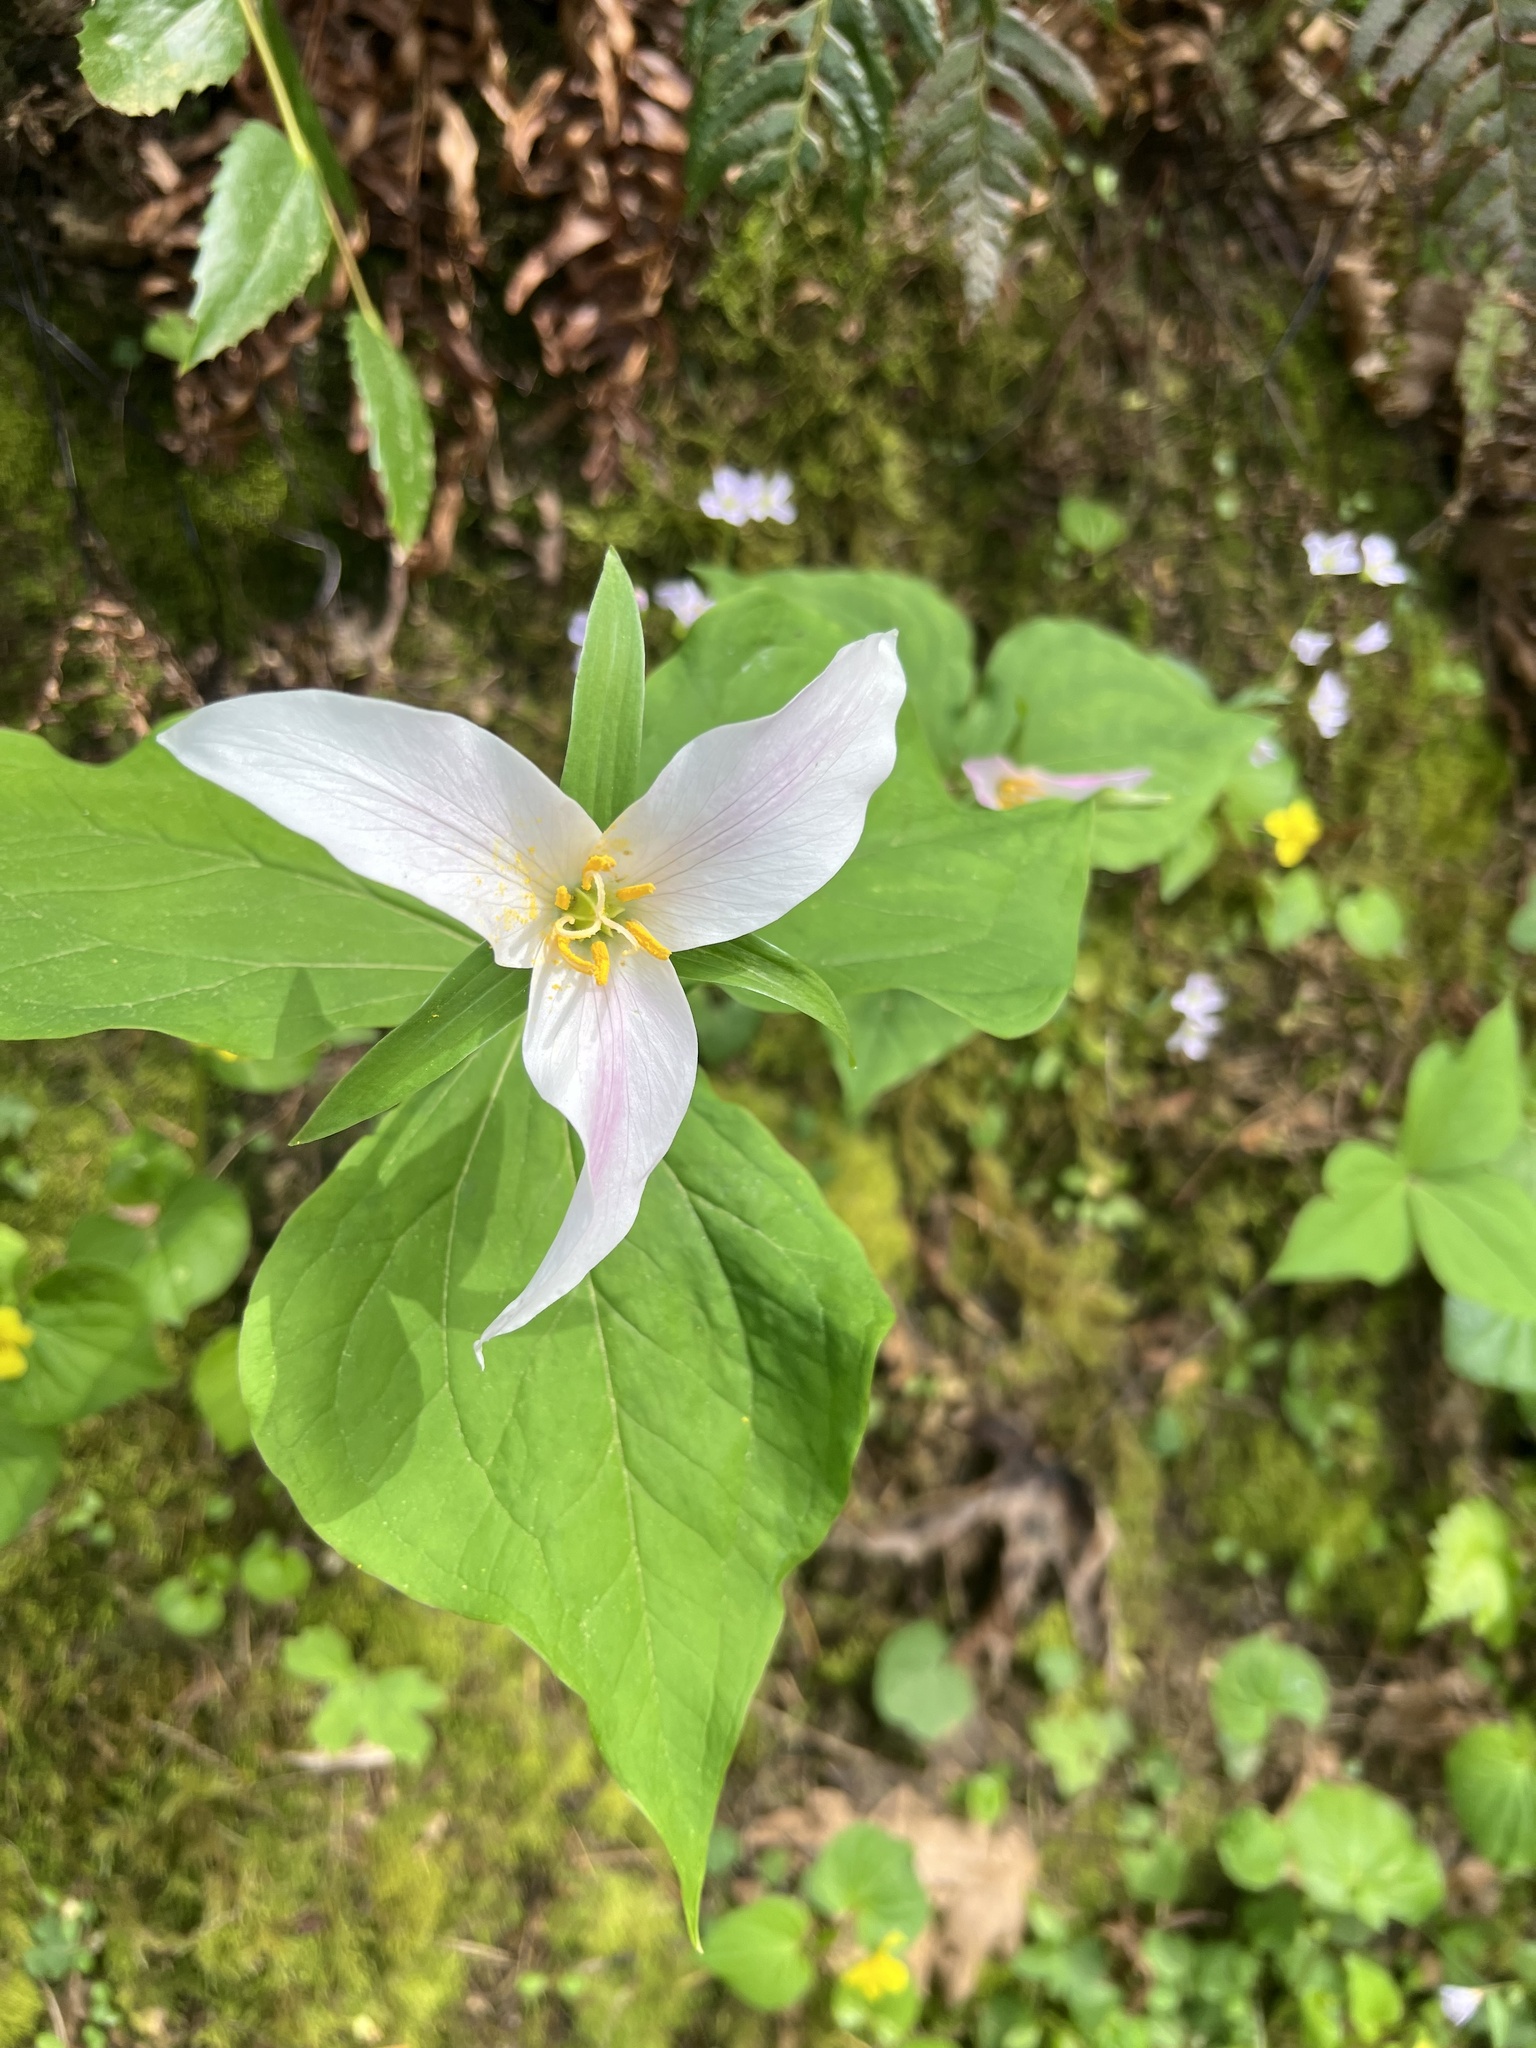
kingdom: Plantae
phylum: Tracheophyta
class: Liliopsida
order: Liliales
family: Melanthiaceae
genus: Trillium
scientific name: Trillium ovatum
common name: Pacific trillium
